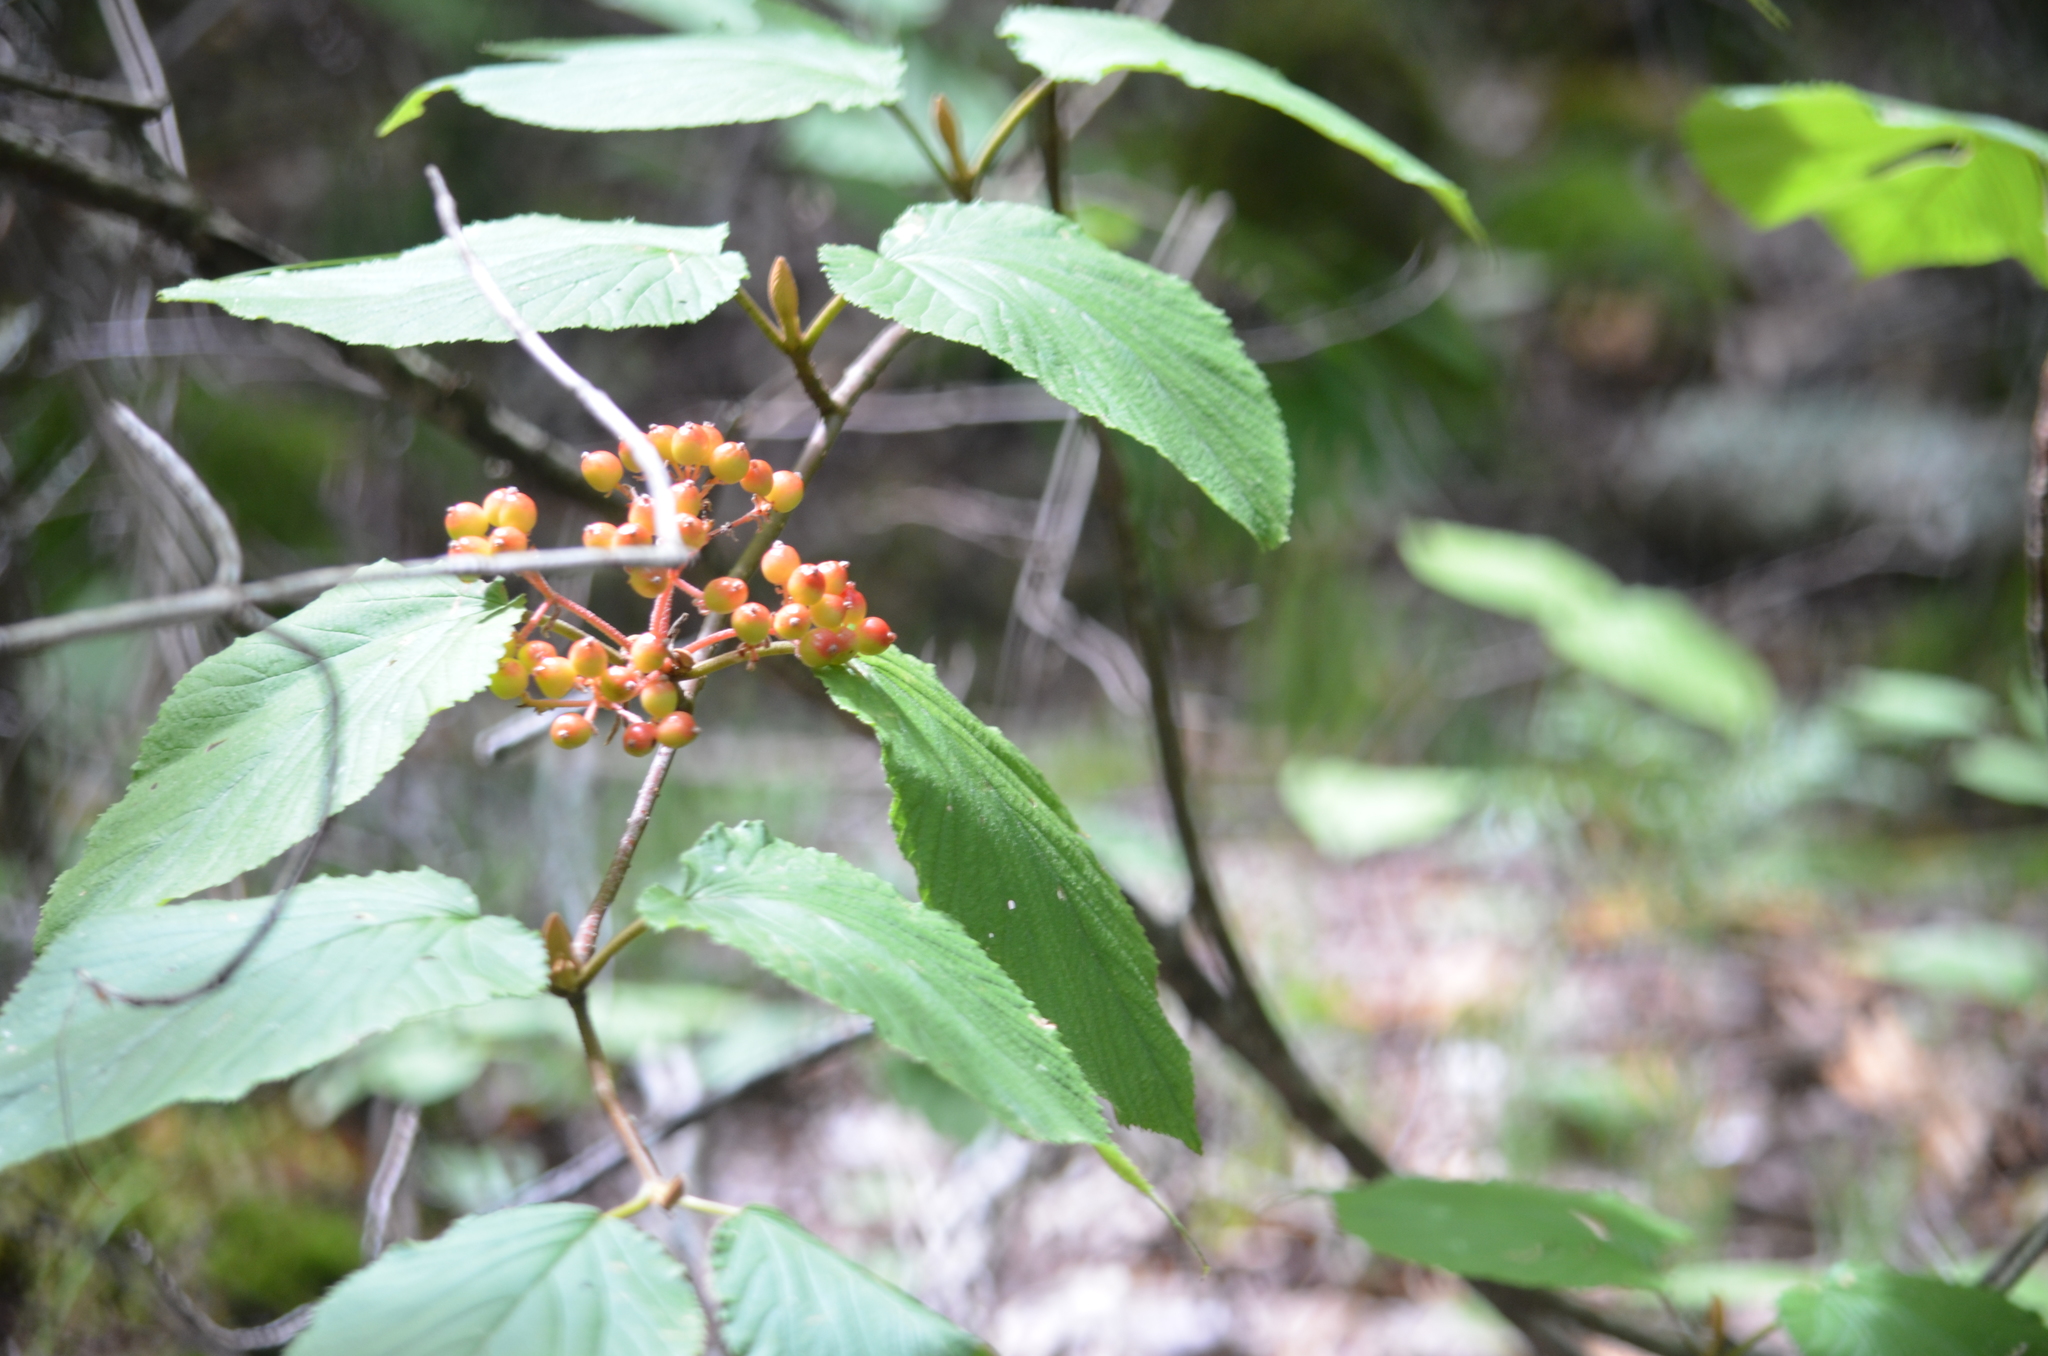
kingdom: Plantae
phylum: Tracheophyta
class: Magnoliopsida
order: Dipsacales
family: Viburnaceae
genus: Viburnum
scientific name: Viburnum lantanoides
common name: Hobblebush
